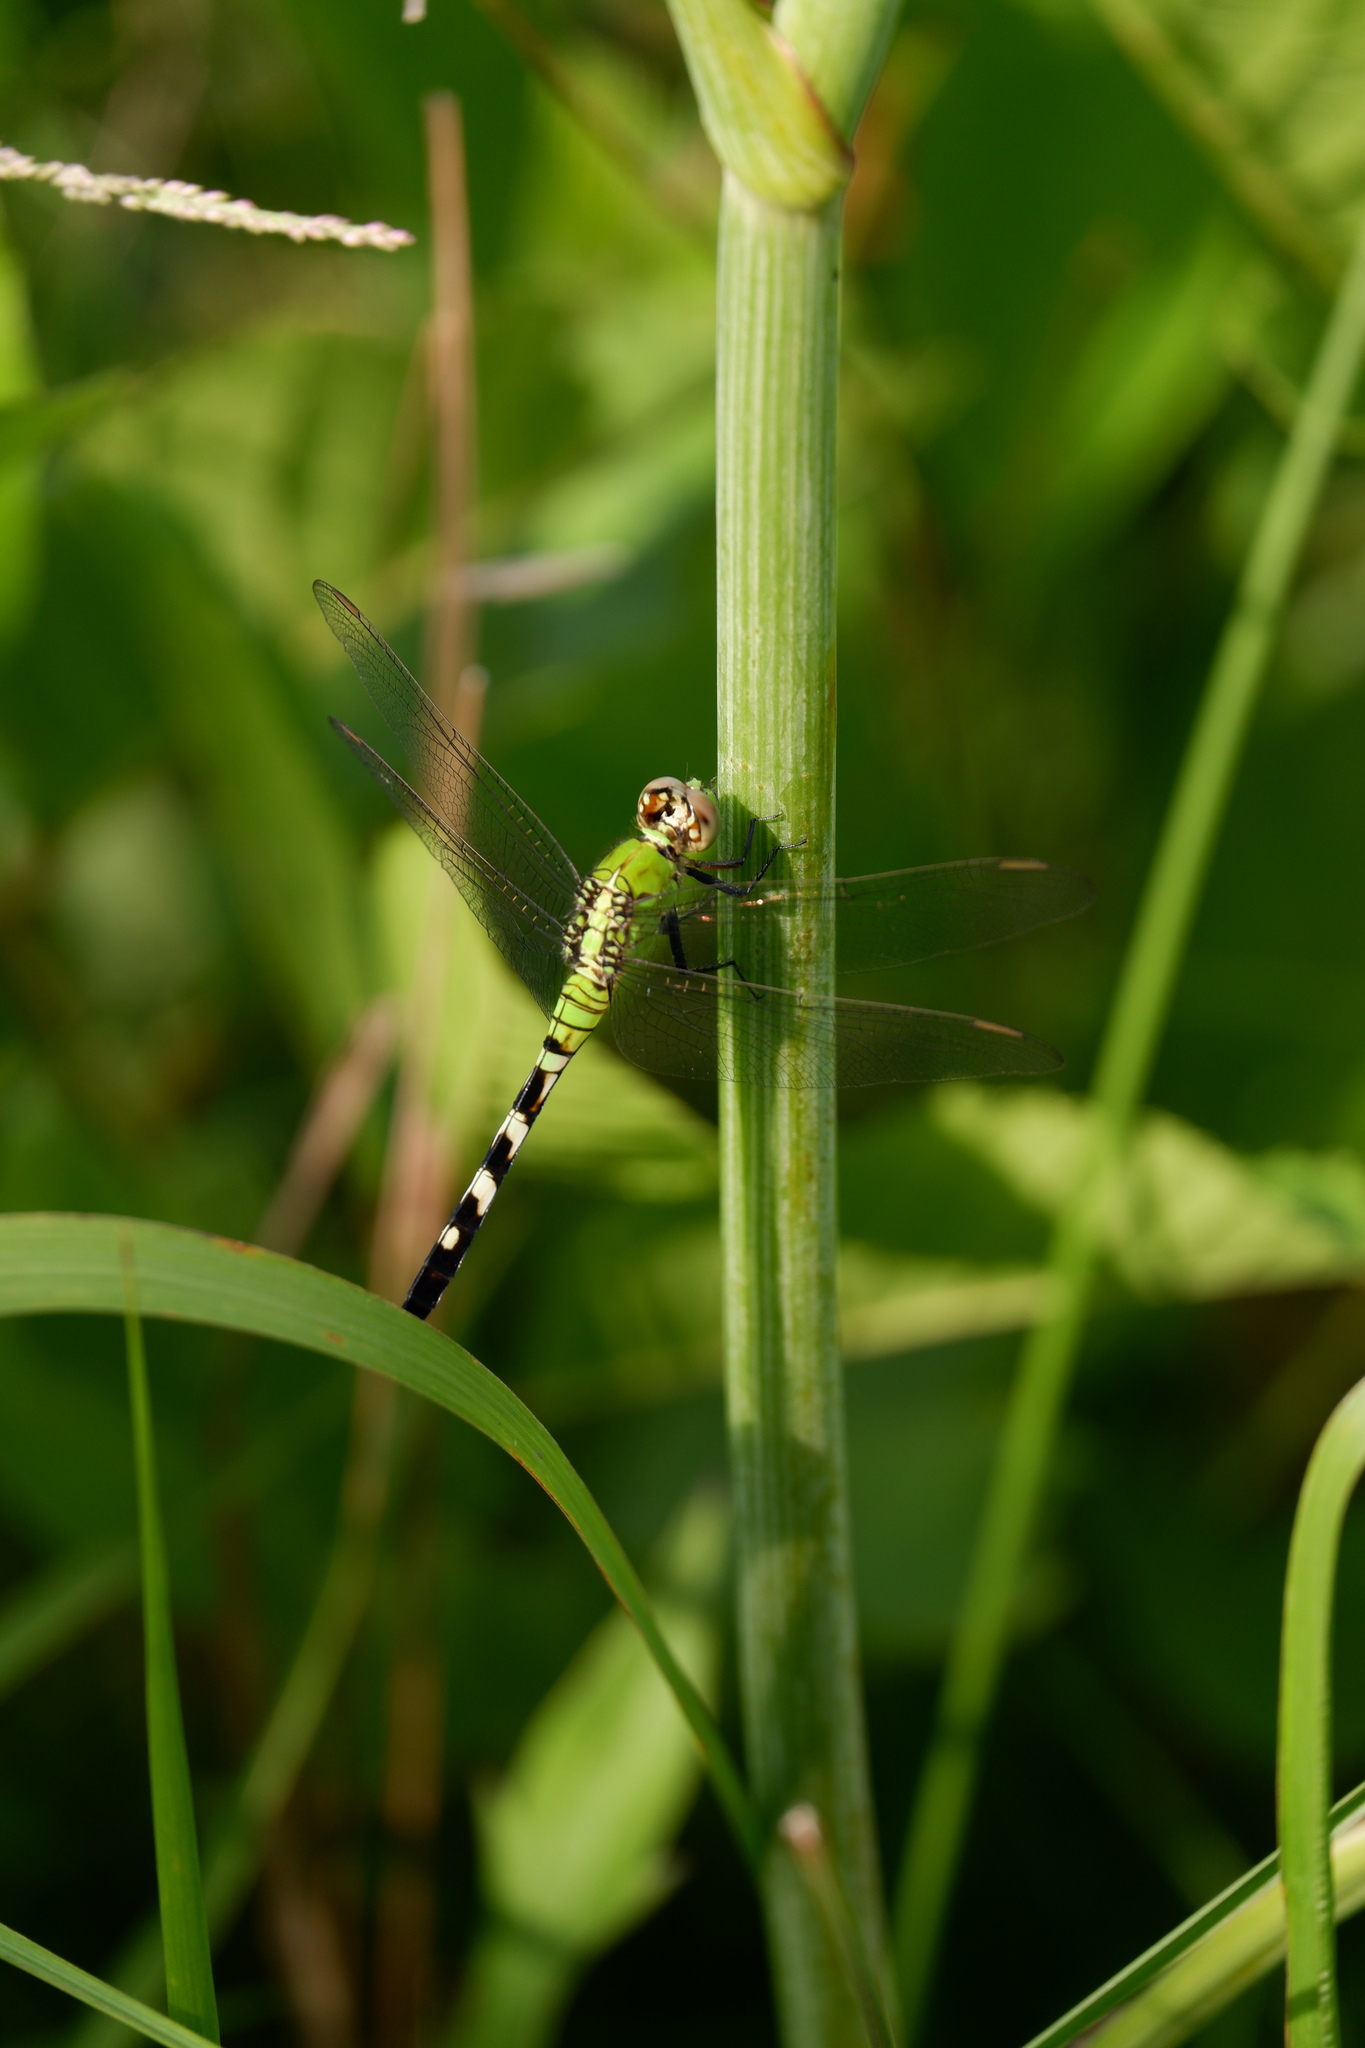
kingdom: Animalia
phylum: Arthropoda
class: Insecta
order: Odonata
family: Libellulidae
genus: Erythemis
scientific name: Erythemis simplicicollis
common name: Eastern pondhawk
